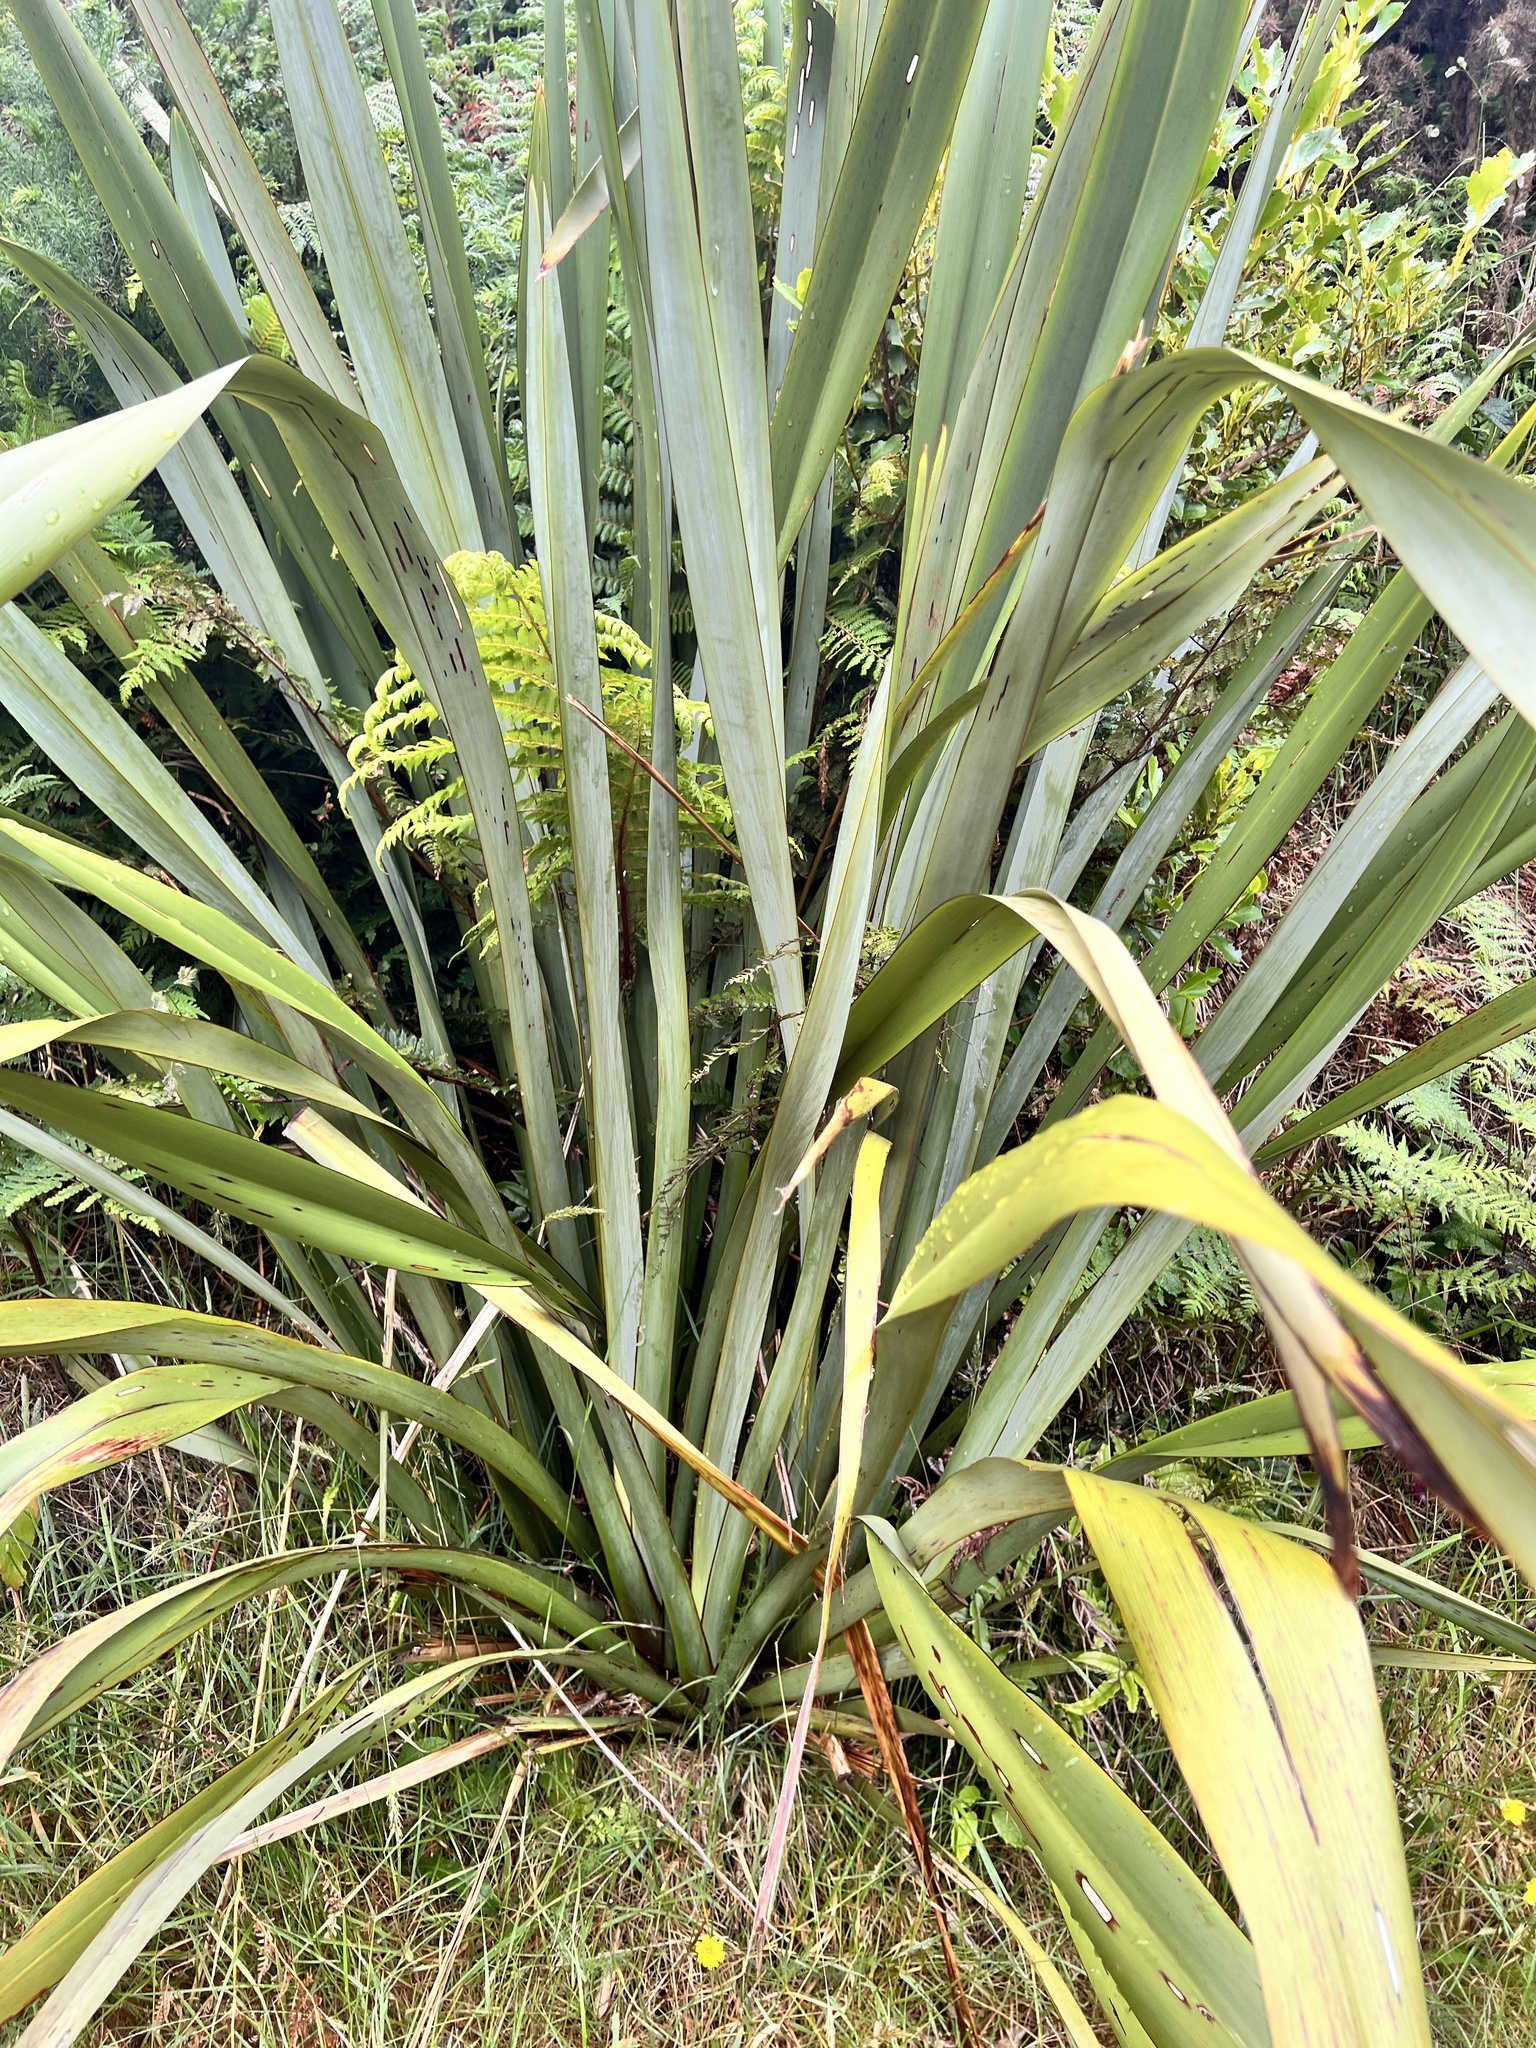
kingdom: Plantae
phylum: Tracheophyta
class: Liliopsida
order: Asparagales
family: Asphodelaceae
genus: Phormium
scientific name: Phormium tenax
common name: New zealand flax
